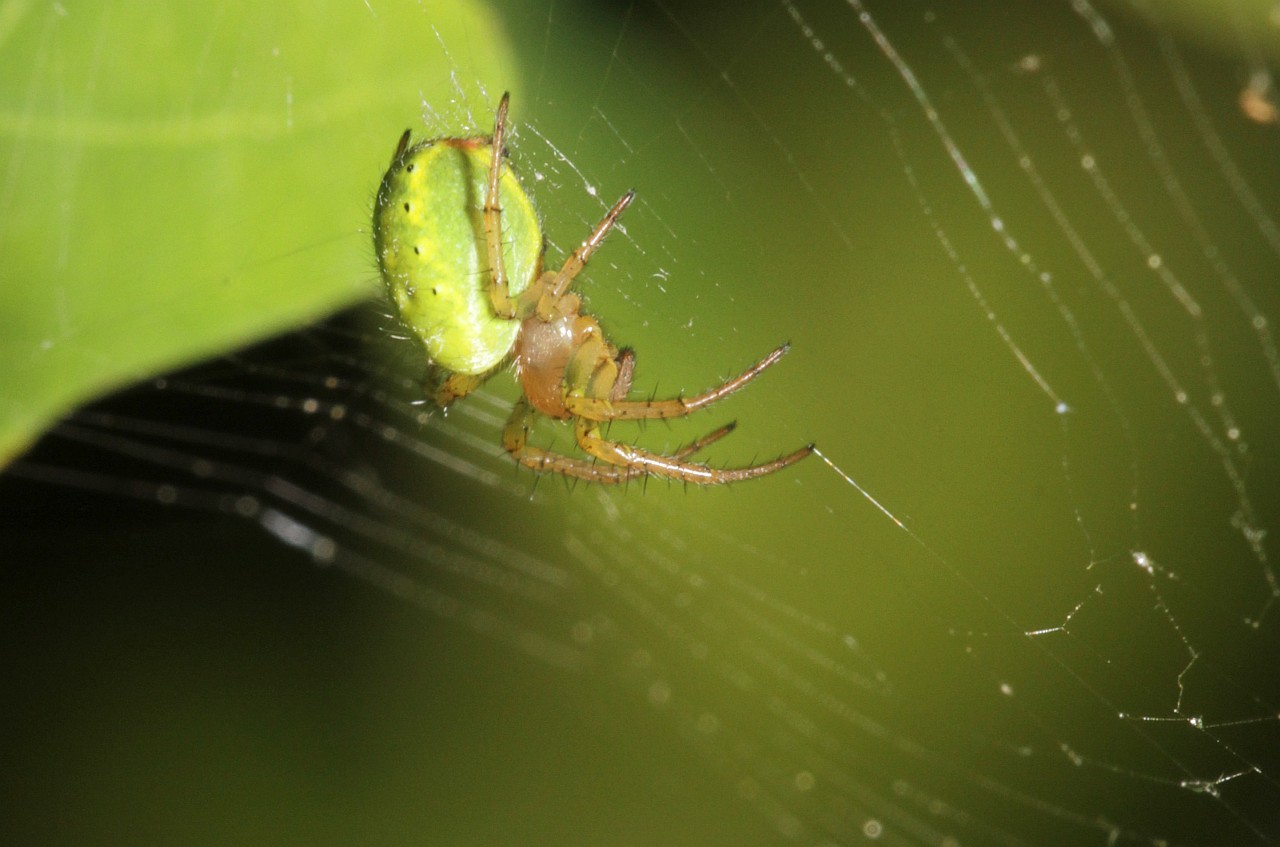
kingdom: Animalia
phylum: Arthropoda
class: Arachnida
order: Araneae
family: Araneidae
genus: Araniella
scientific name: Araniella
